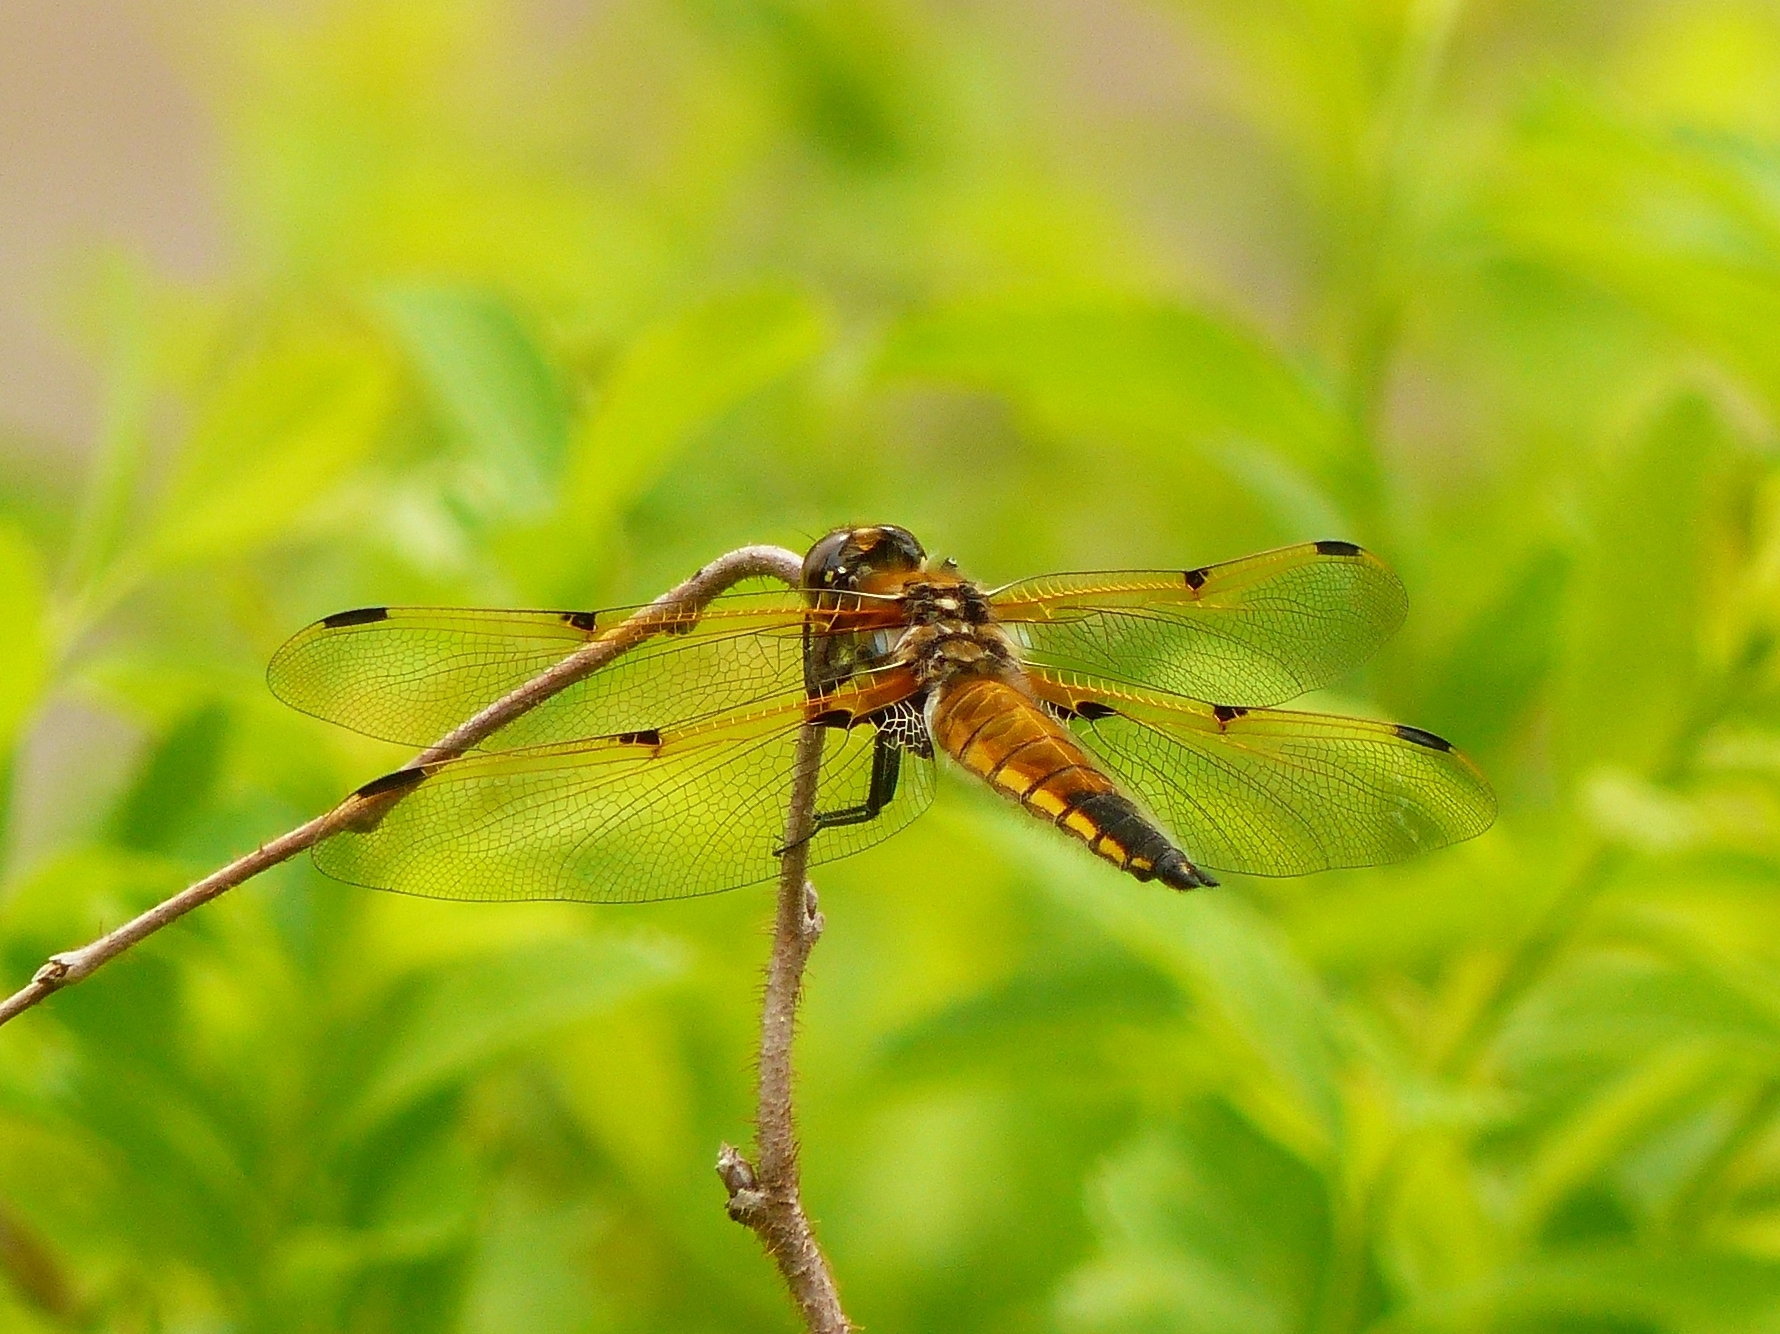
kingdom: Animalia
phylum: Arthropoda
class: Insecta
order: Odonata
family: Libellulidae
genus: Libellula
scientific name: Libellula quadrimaculata
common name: Four-spotted chaser
